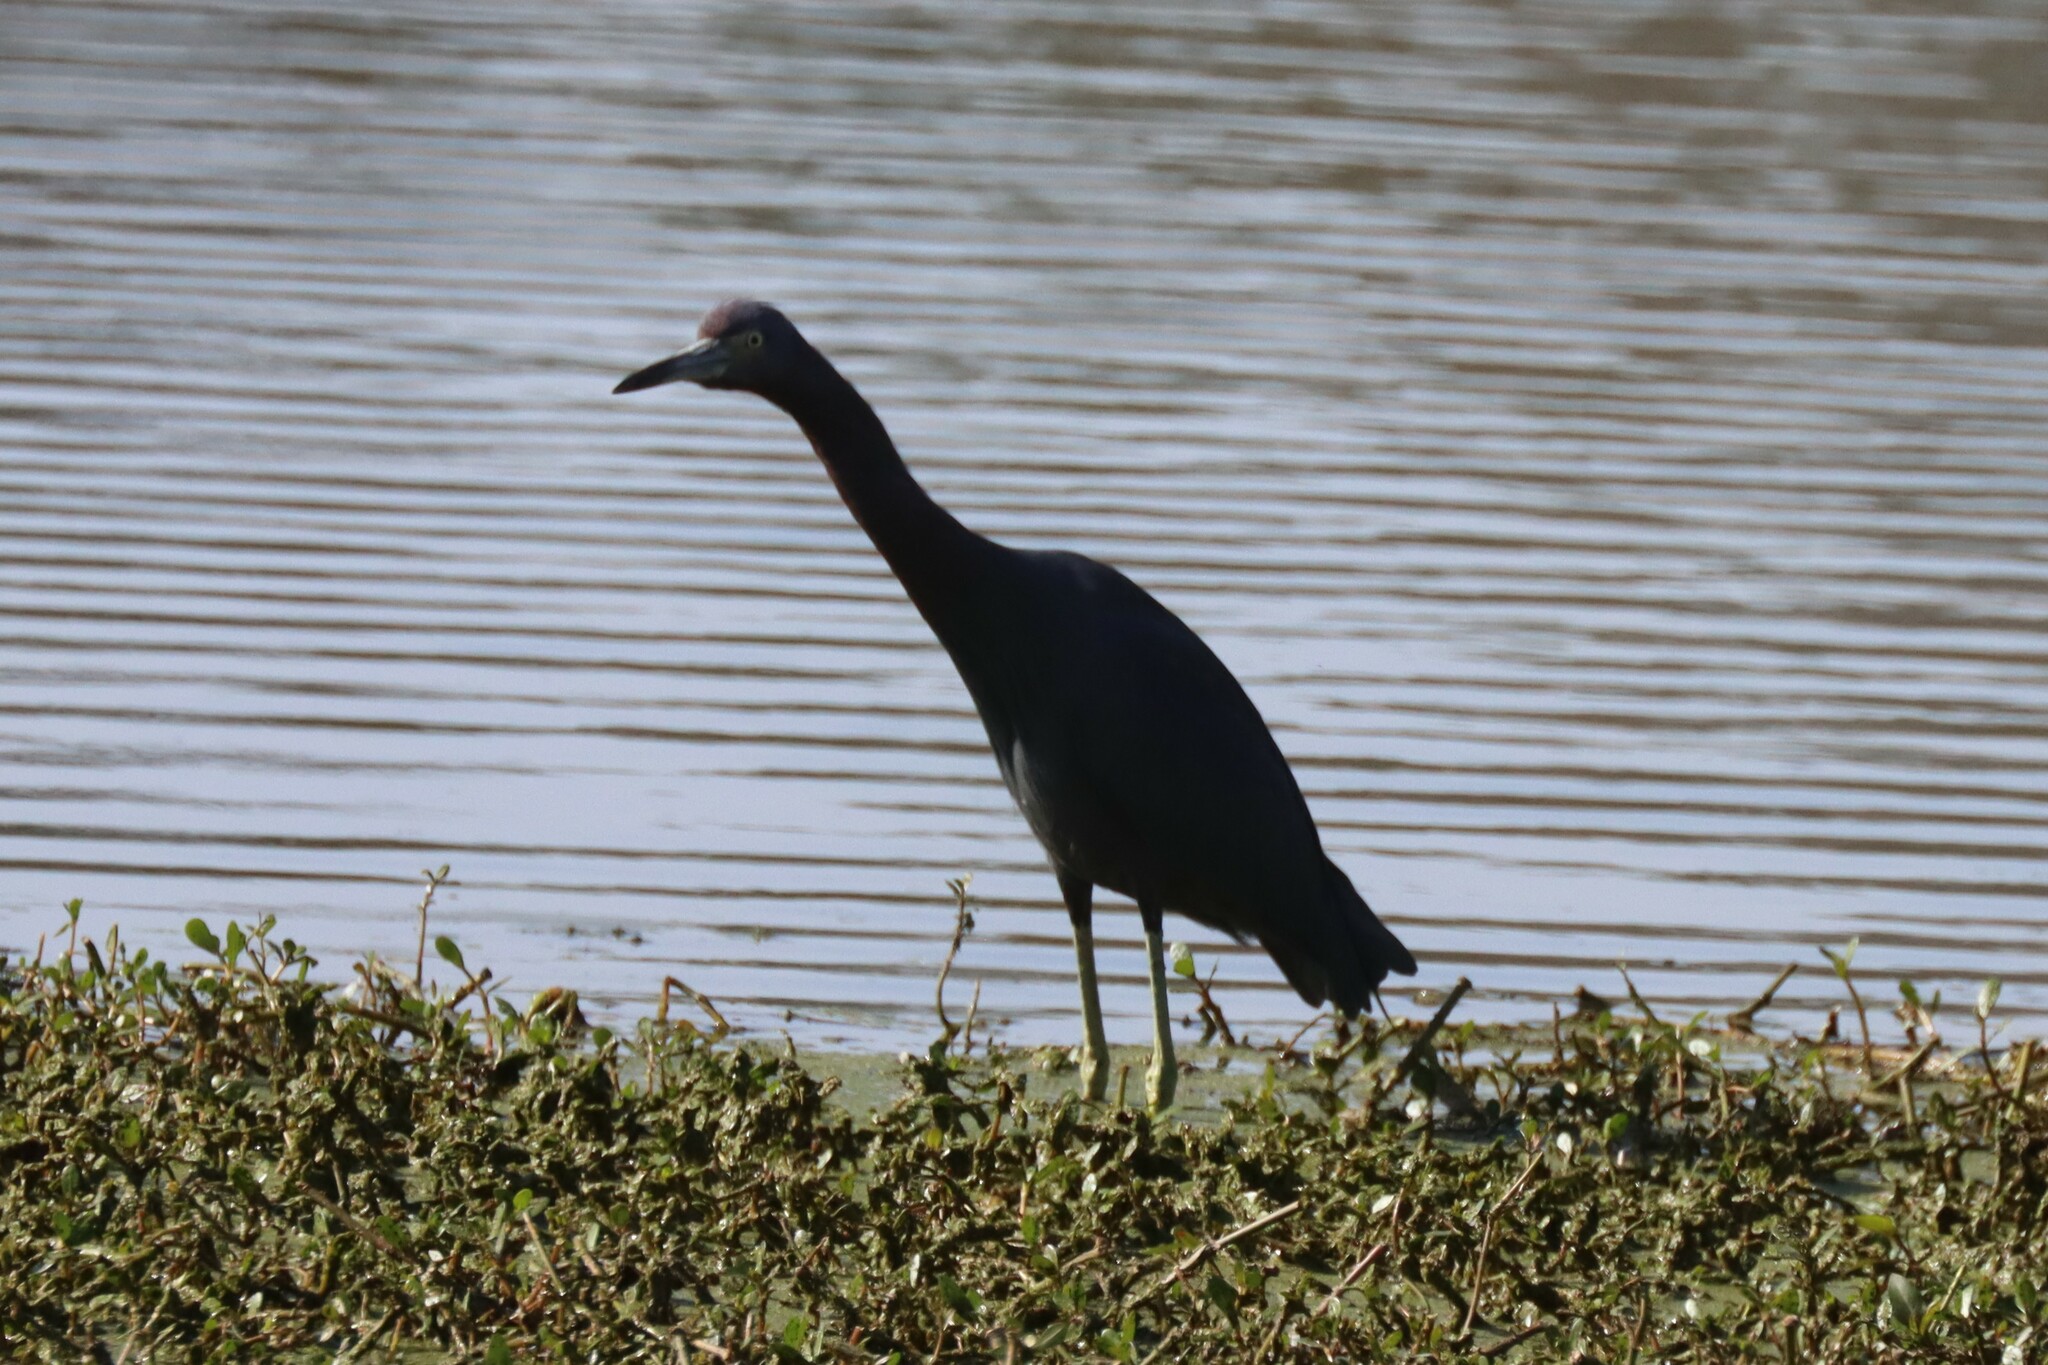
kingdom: Animalia
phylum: Chordata
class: Aves
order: Pelecaniformes
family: Ardeidae
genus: Egretta
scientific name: Egretta caerulea
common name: Little blue heron
